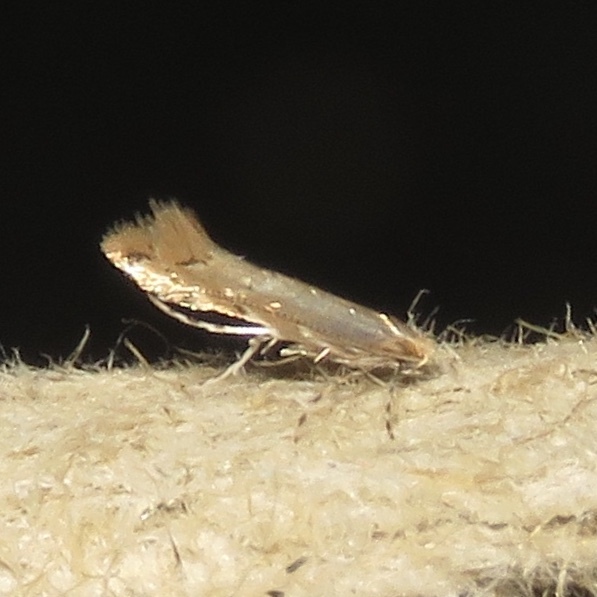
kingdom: Animalia
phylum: Arthropoda
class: Insecta
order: Lepidoptera
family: Gracillariidae
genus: Cremastobombycia
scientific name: Cremastobombycia solidaginis
